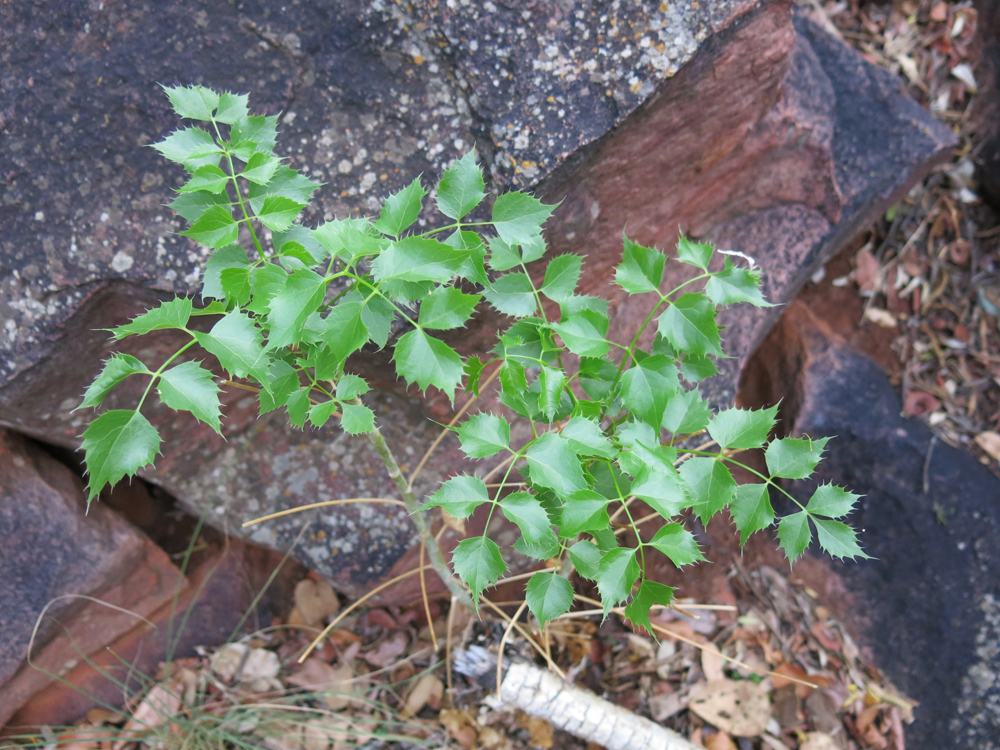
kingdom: Plantae
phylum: Tracheophyta
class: Magnoliopsida
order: Apiales
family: Apiaceae
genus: Steganotaenia
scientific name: Steganotaenia araliacea
